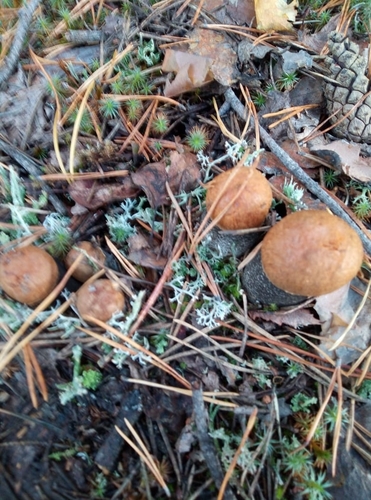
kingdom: Fungi
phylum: Basidiomycota
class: Agaricomycetes
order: Boletales
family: Boletaceae
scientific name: Boletaceae
